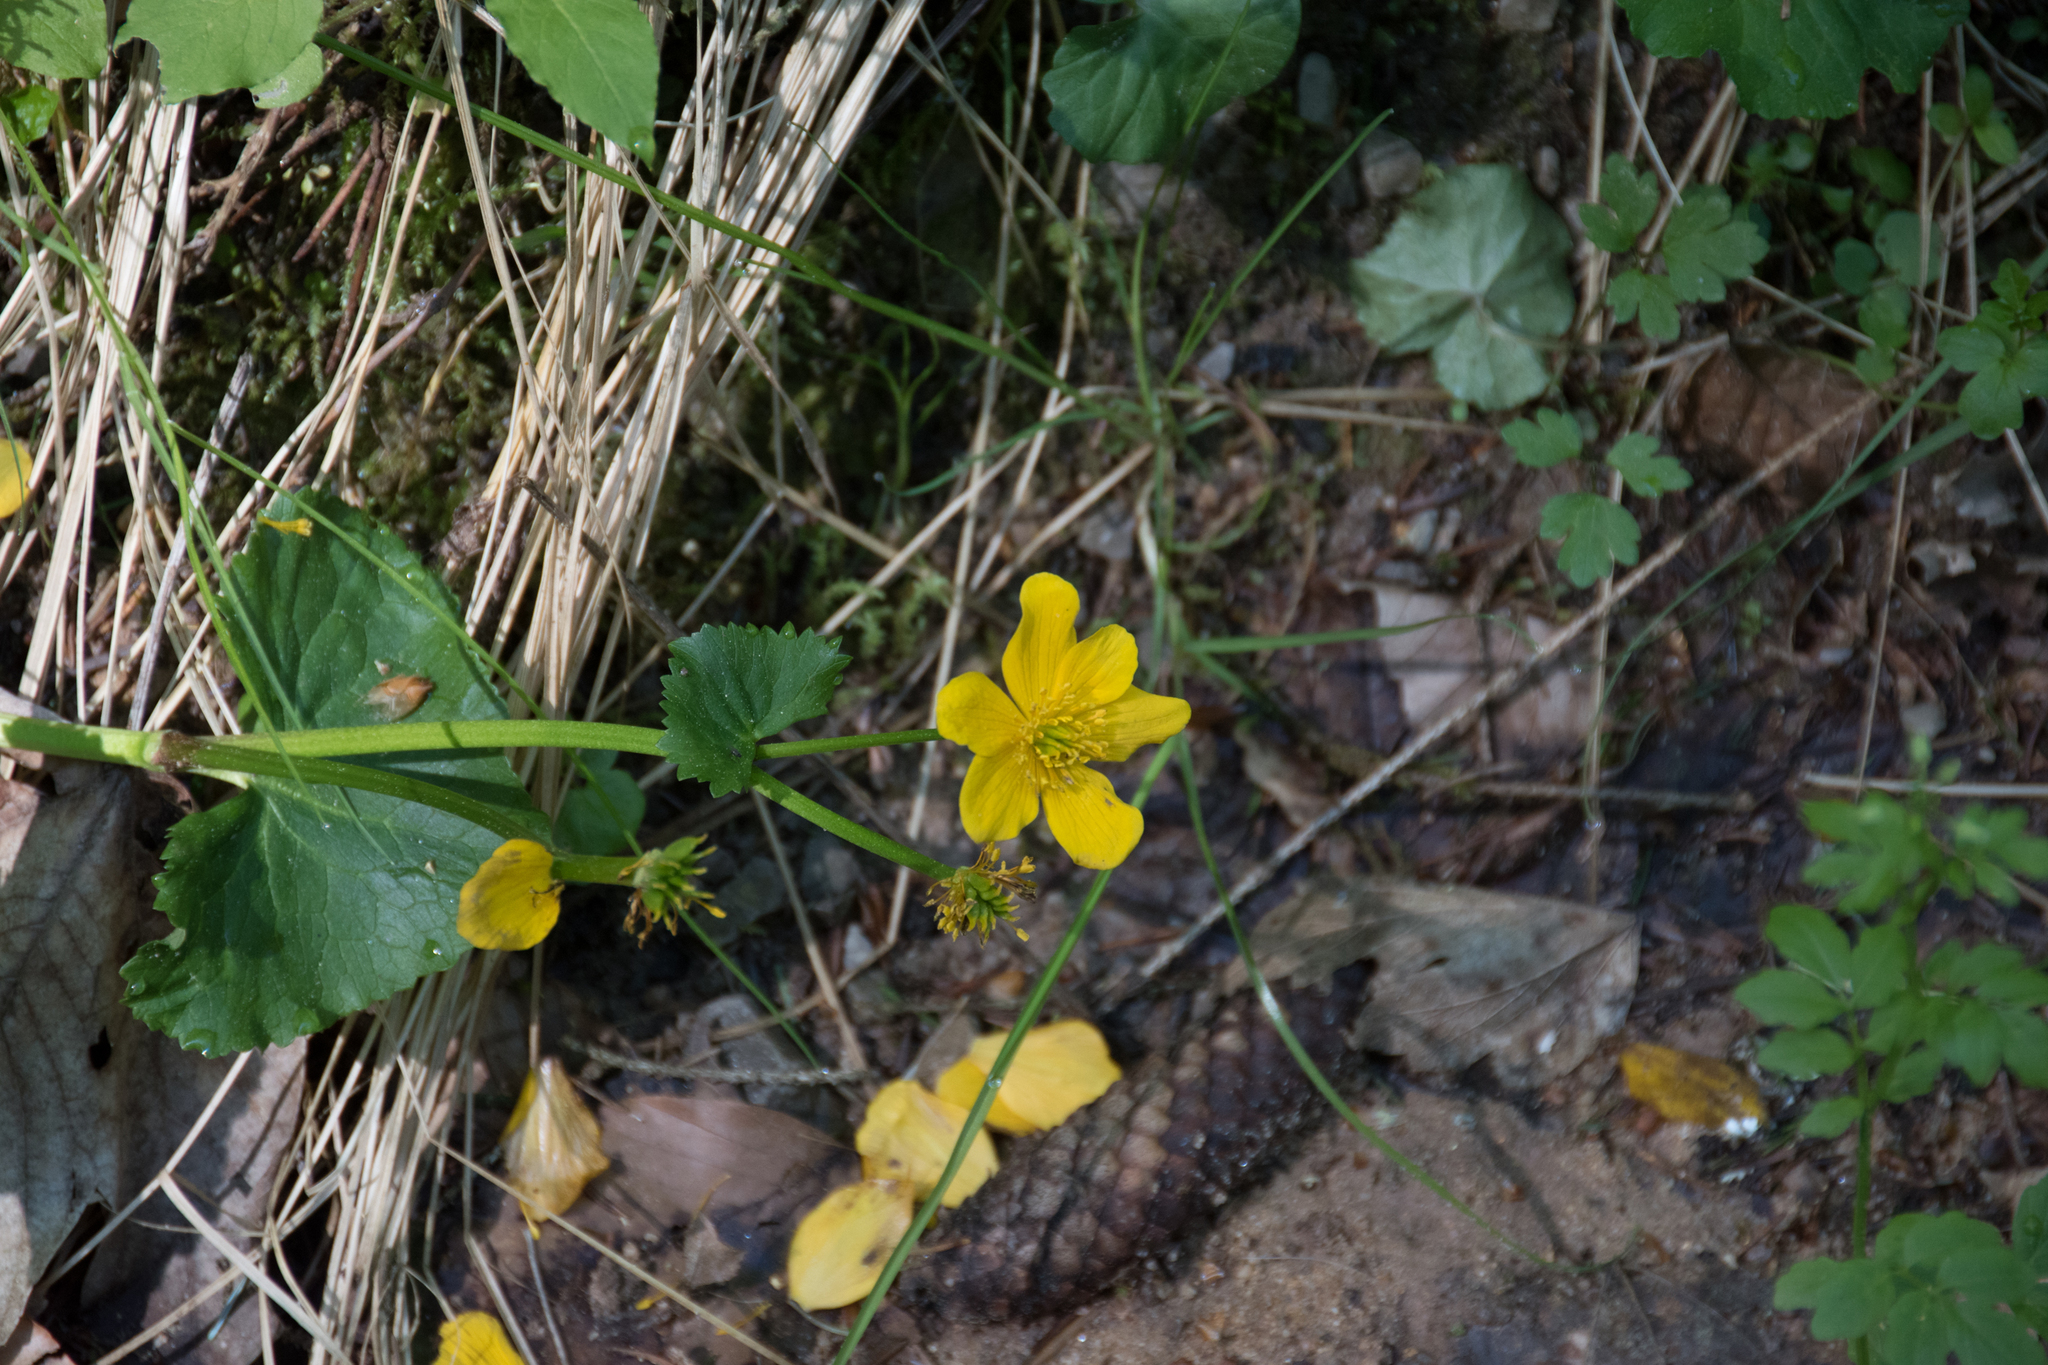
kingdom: Plantae
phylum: Tracheophyta
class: Magnoliopsida
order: Ranunculales
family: Ranunculaceae
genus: Caltha
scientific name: Caltha palustris
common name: Marsh marigold
